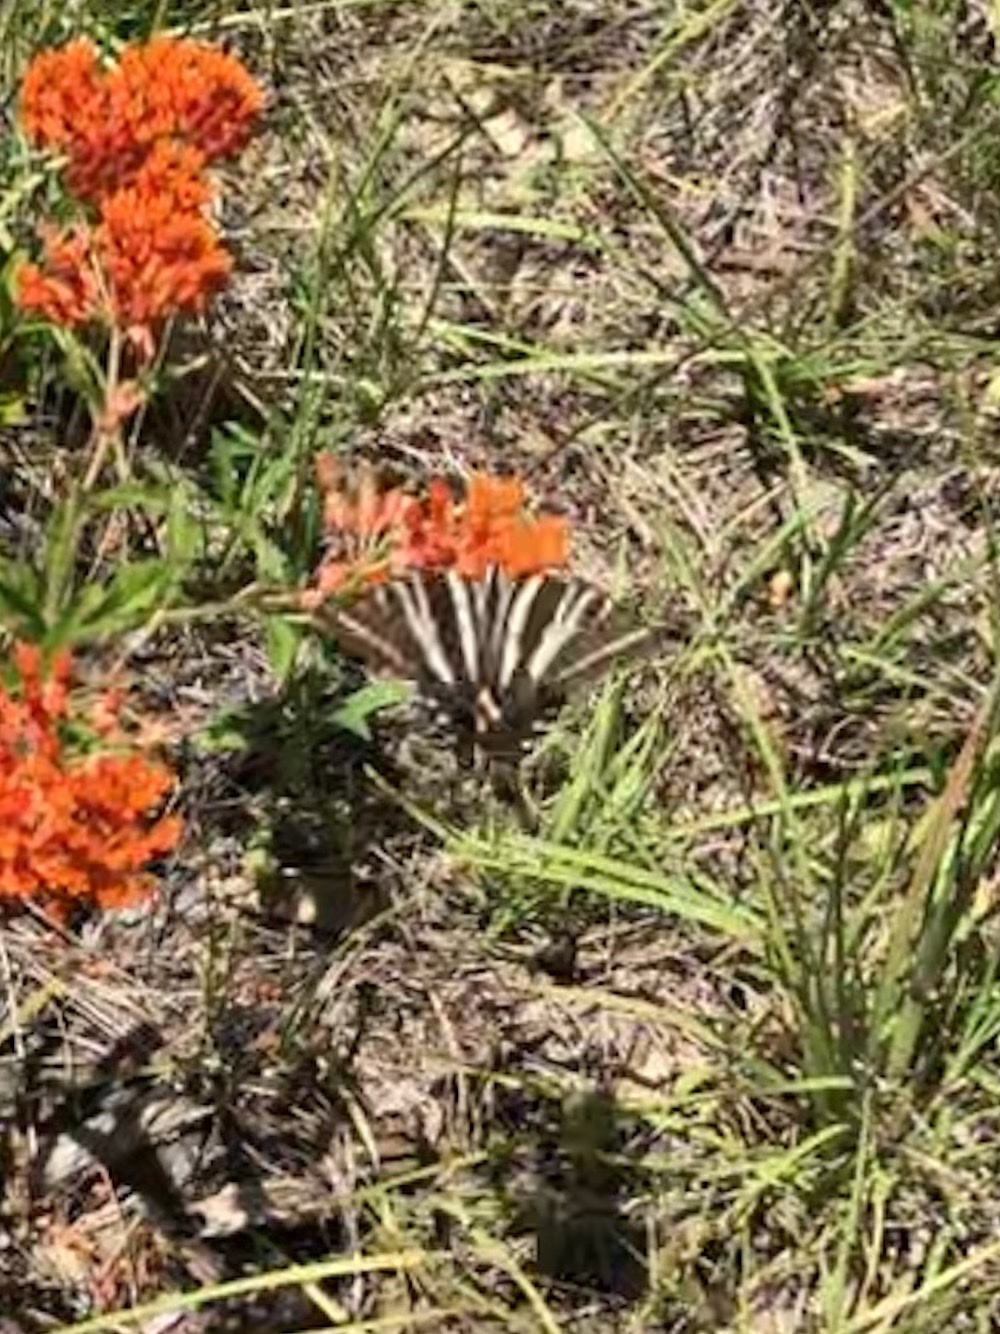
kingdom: Animalia
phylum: Arthropoda
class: Insecta
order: Lepidoptera
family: Papilionidae
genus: Protographium
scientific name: Protographium marcellus
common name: Zebra swallowtail
